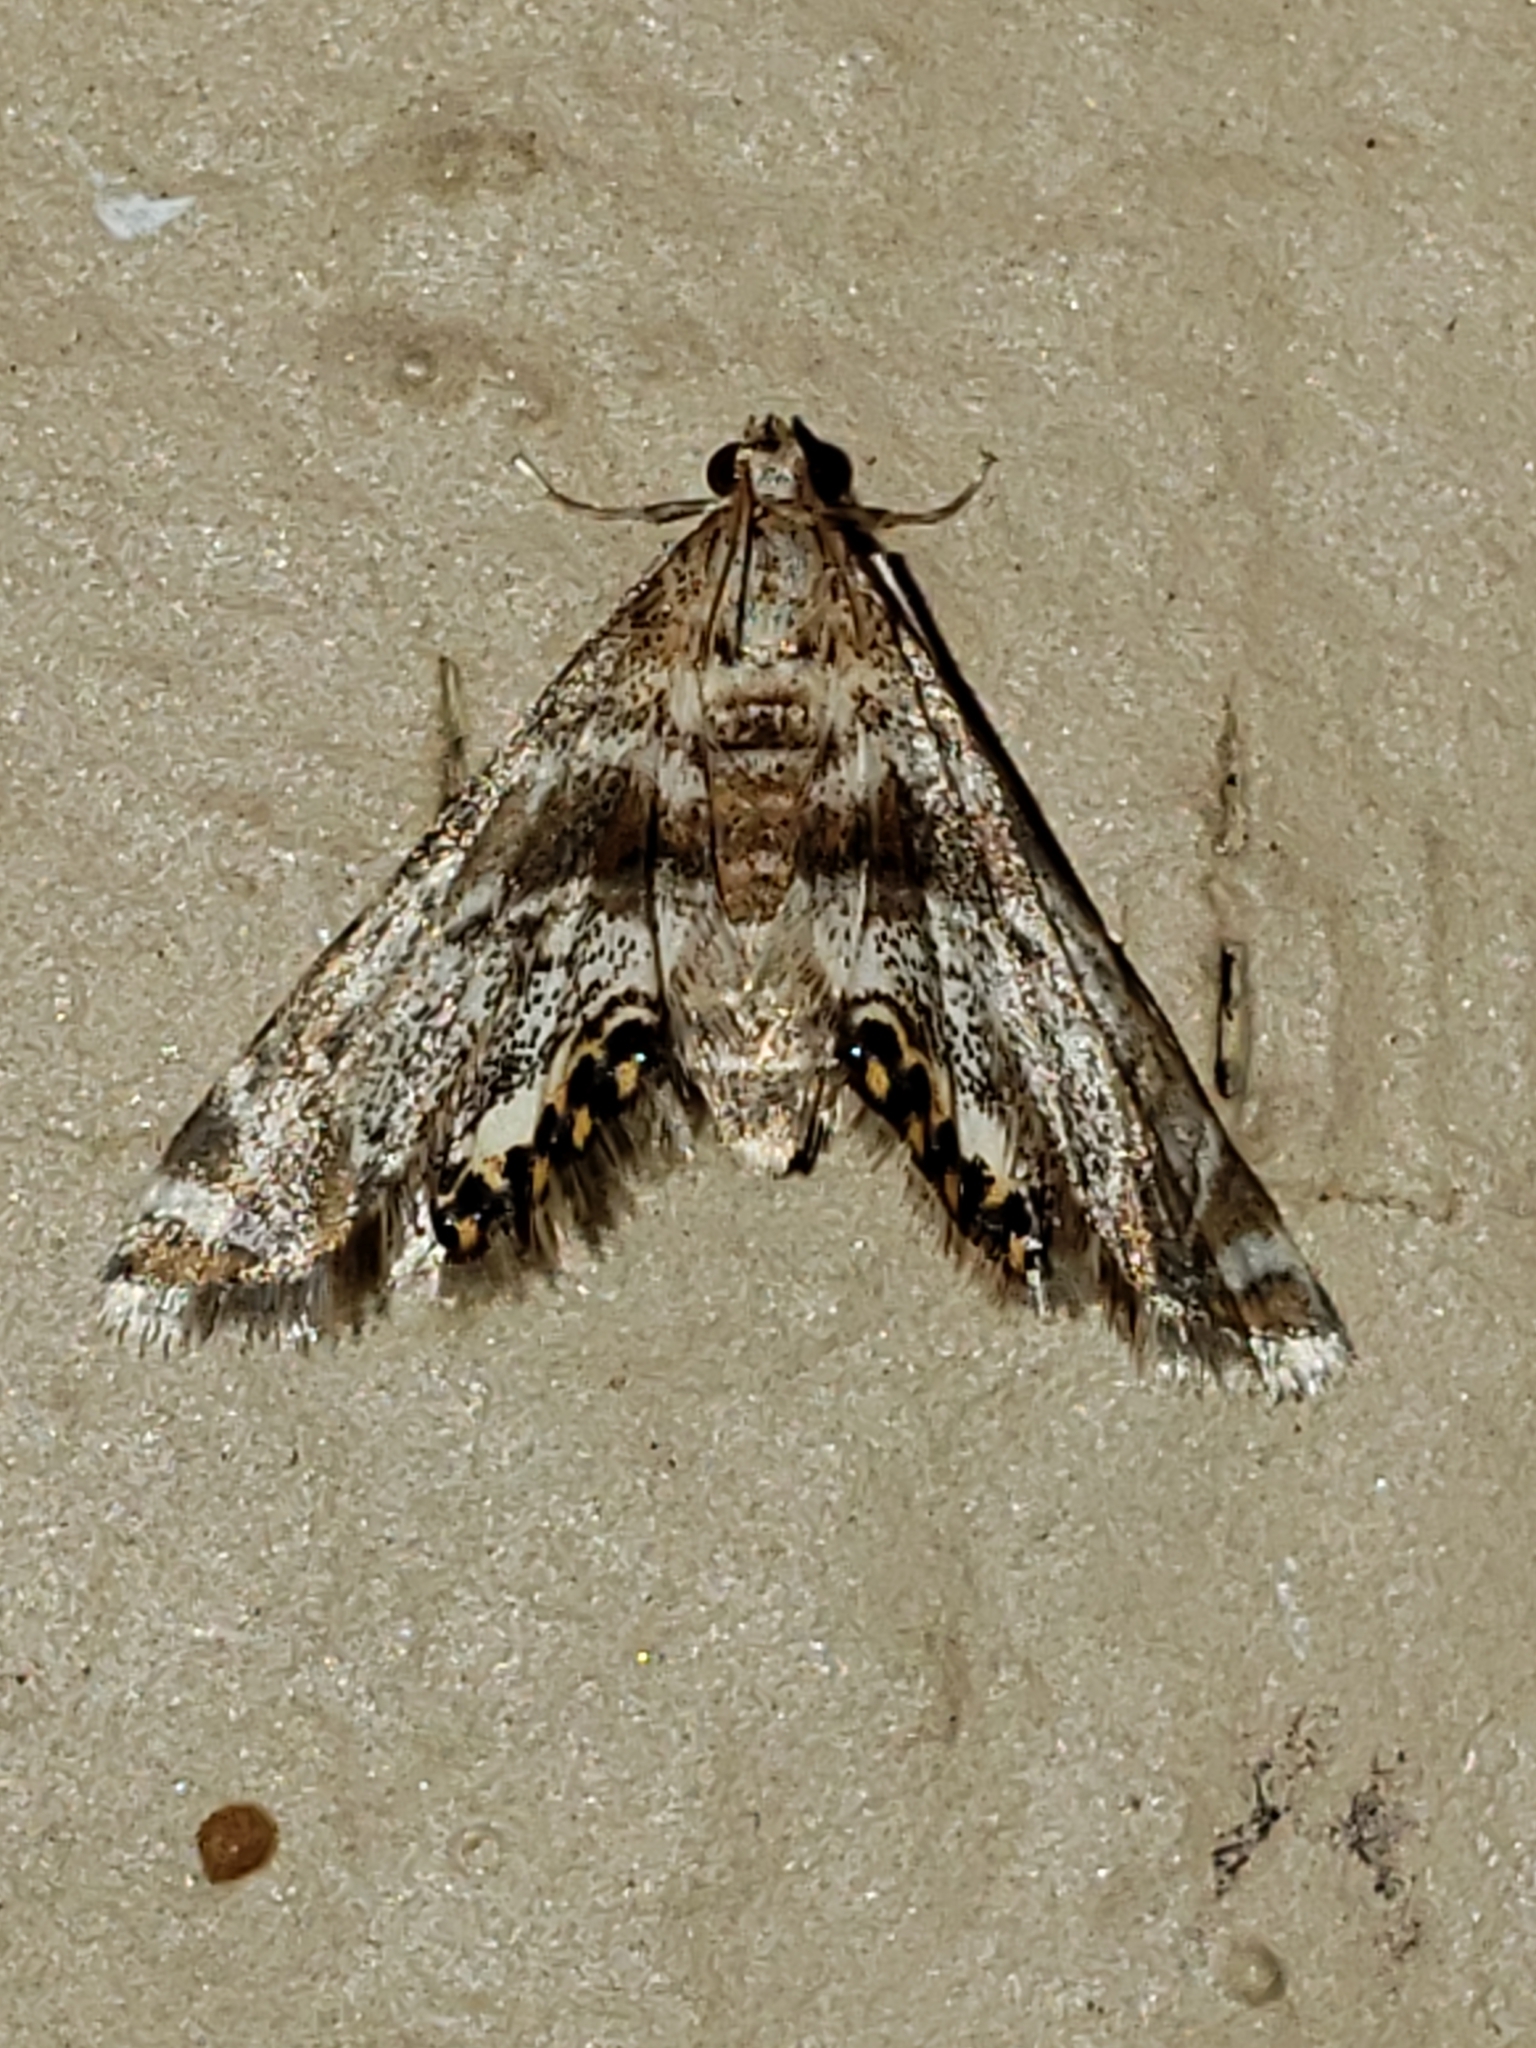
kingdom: Animalia
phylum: Arthropoda
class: Insecta
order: Lepidoptera
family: Crambidae
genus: Petrophila
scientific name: Petrophila fulicalis
